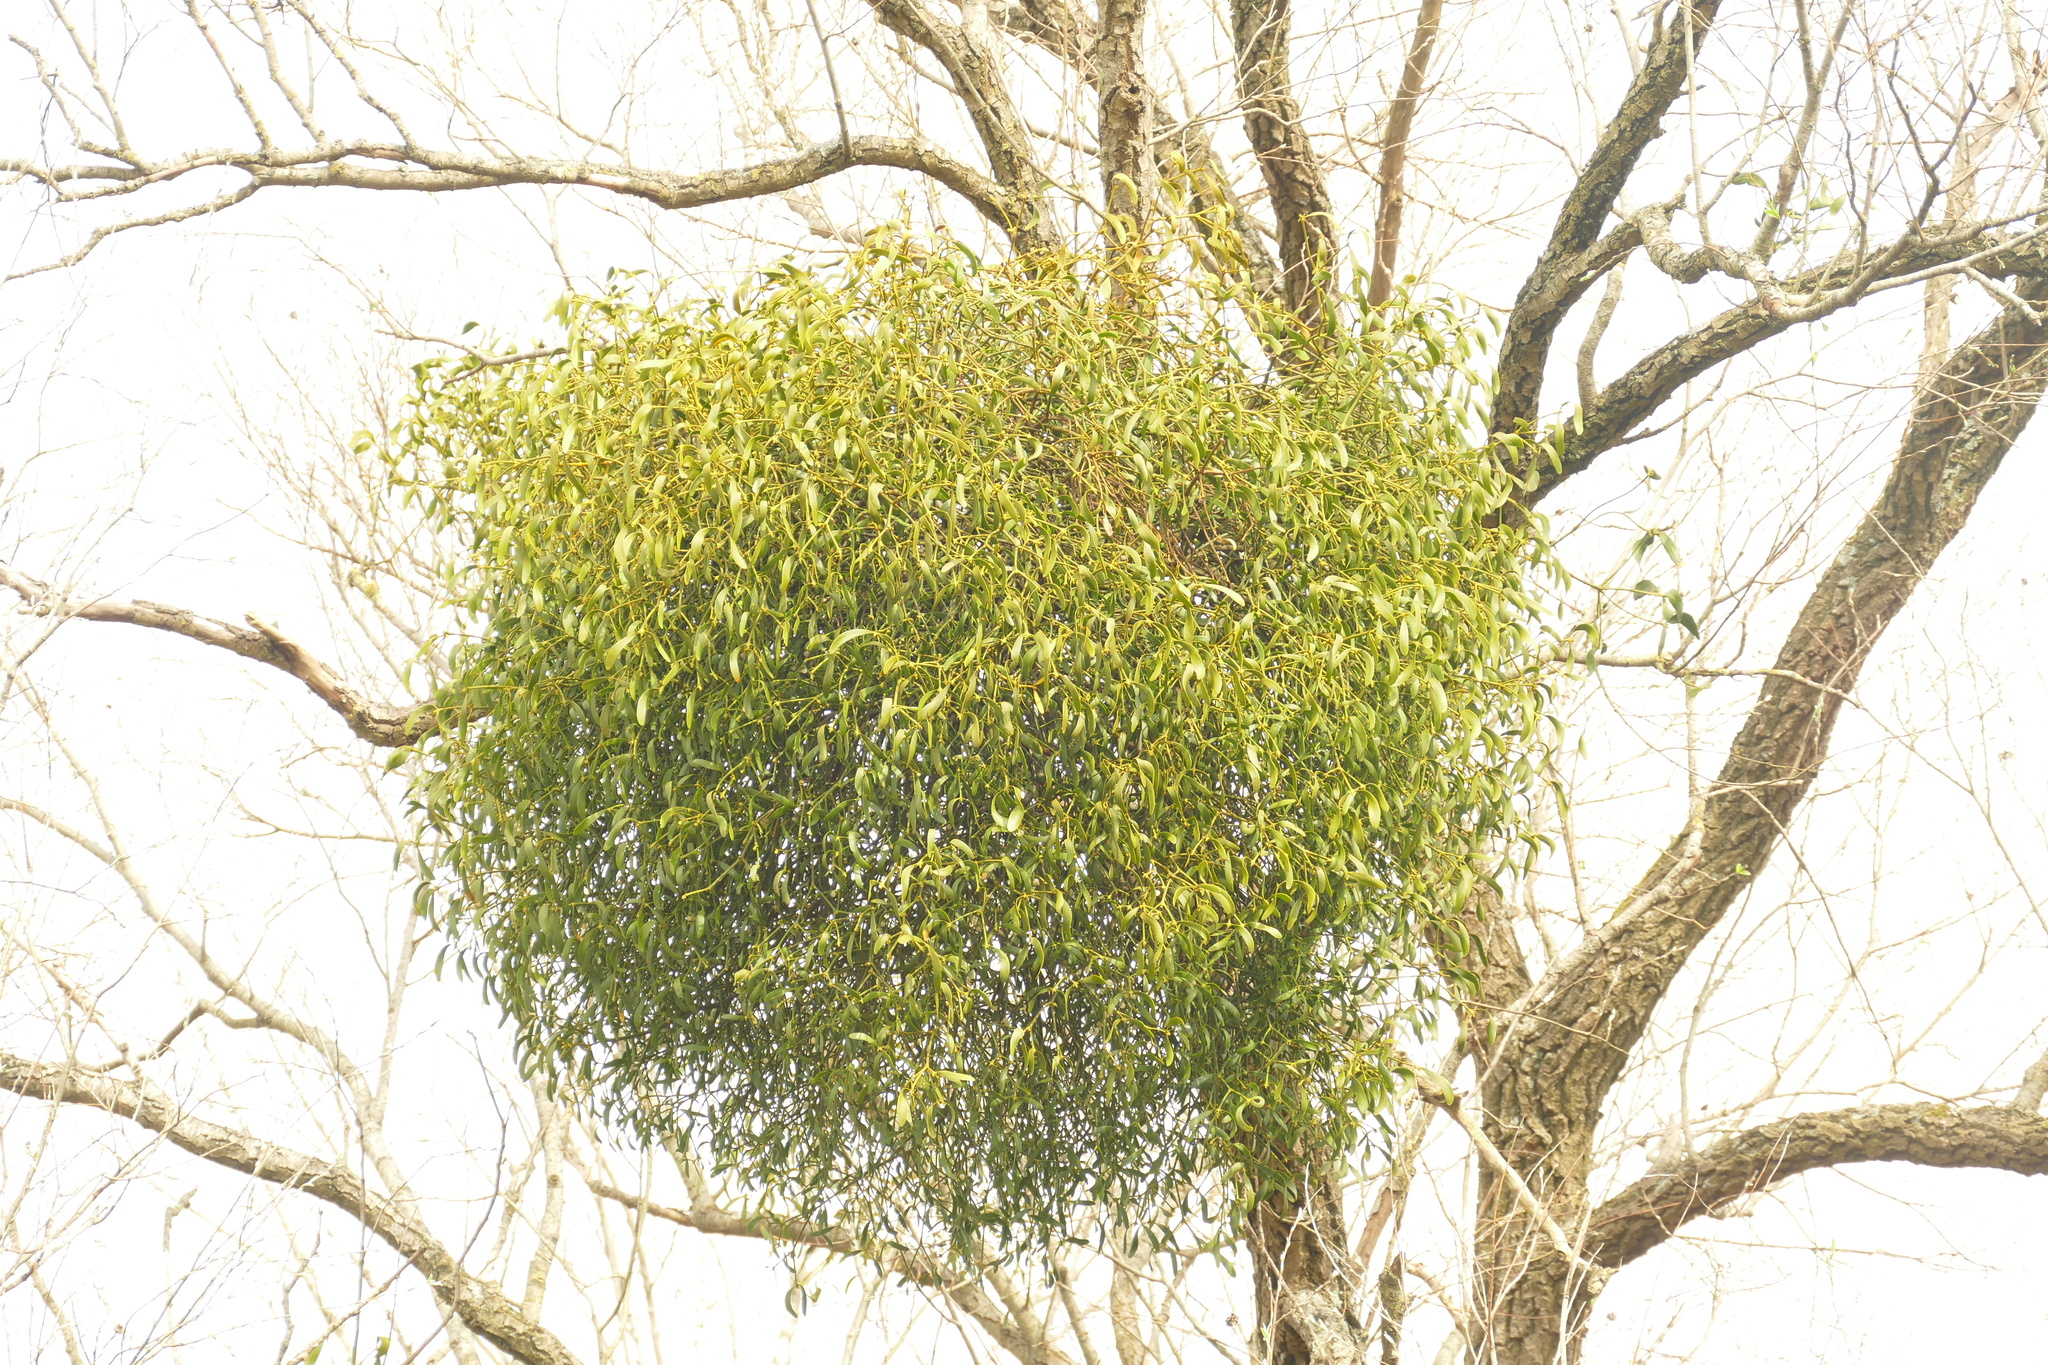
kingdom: Plantae
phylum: Tracheophyta
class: Magnoliopsida
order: Santalales
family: Viscaceae
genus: Viscum
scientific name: Viscum album
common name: Mistletoe
